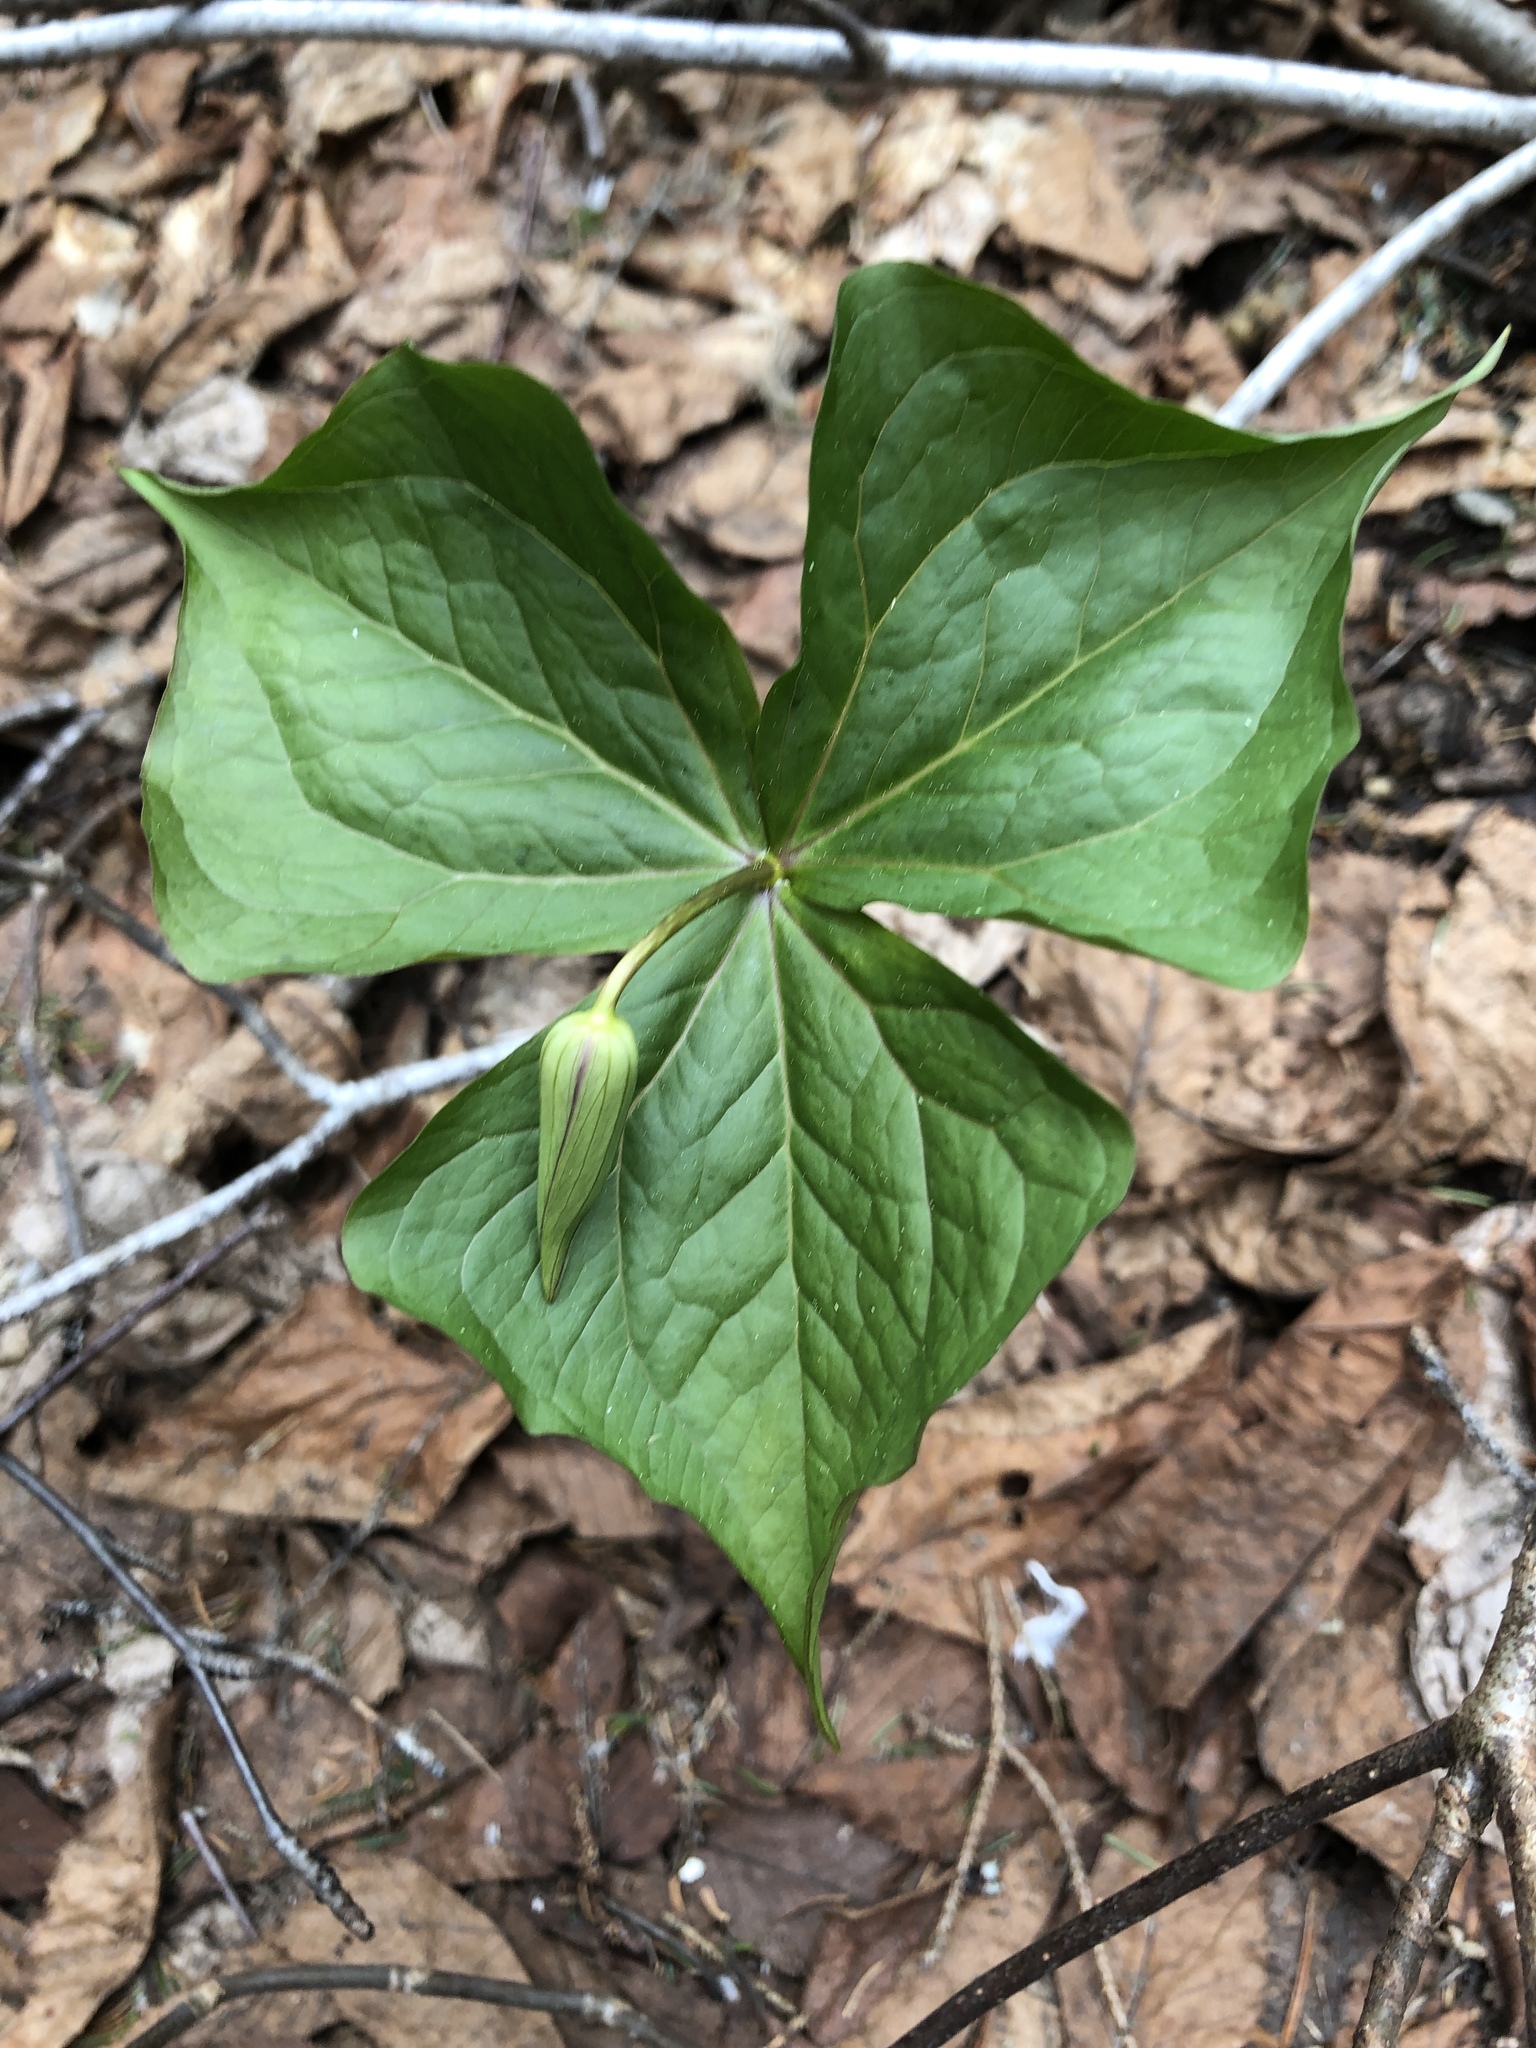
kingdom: Plantae
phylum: Tracheophyta
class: Liliopsida
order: Liliales
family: Melanthiaceae
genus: Trillium
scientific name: Trillium erectum
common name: Purple trillium
